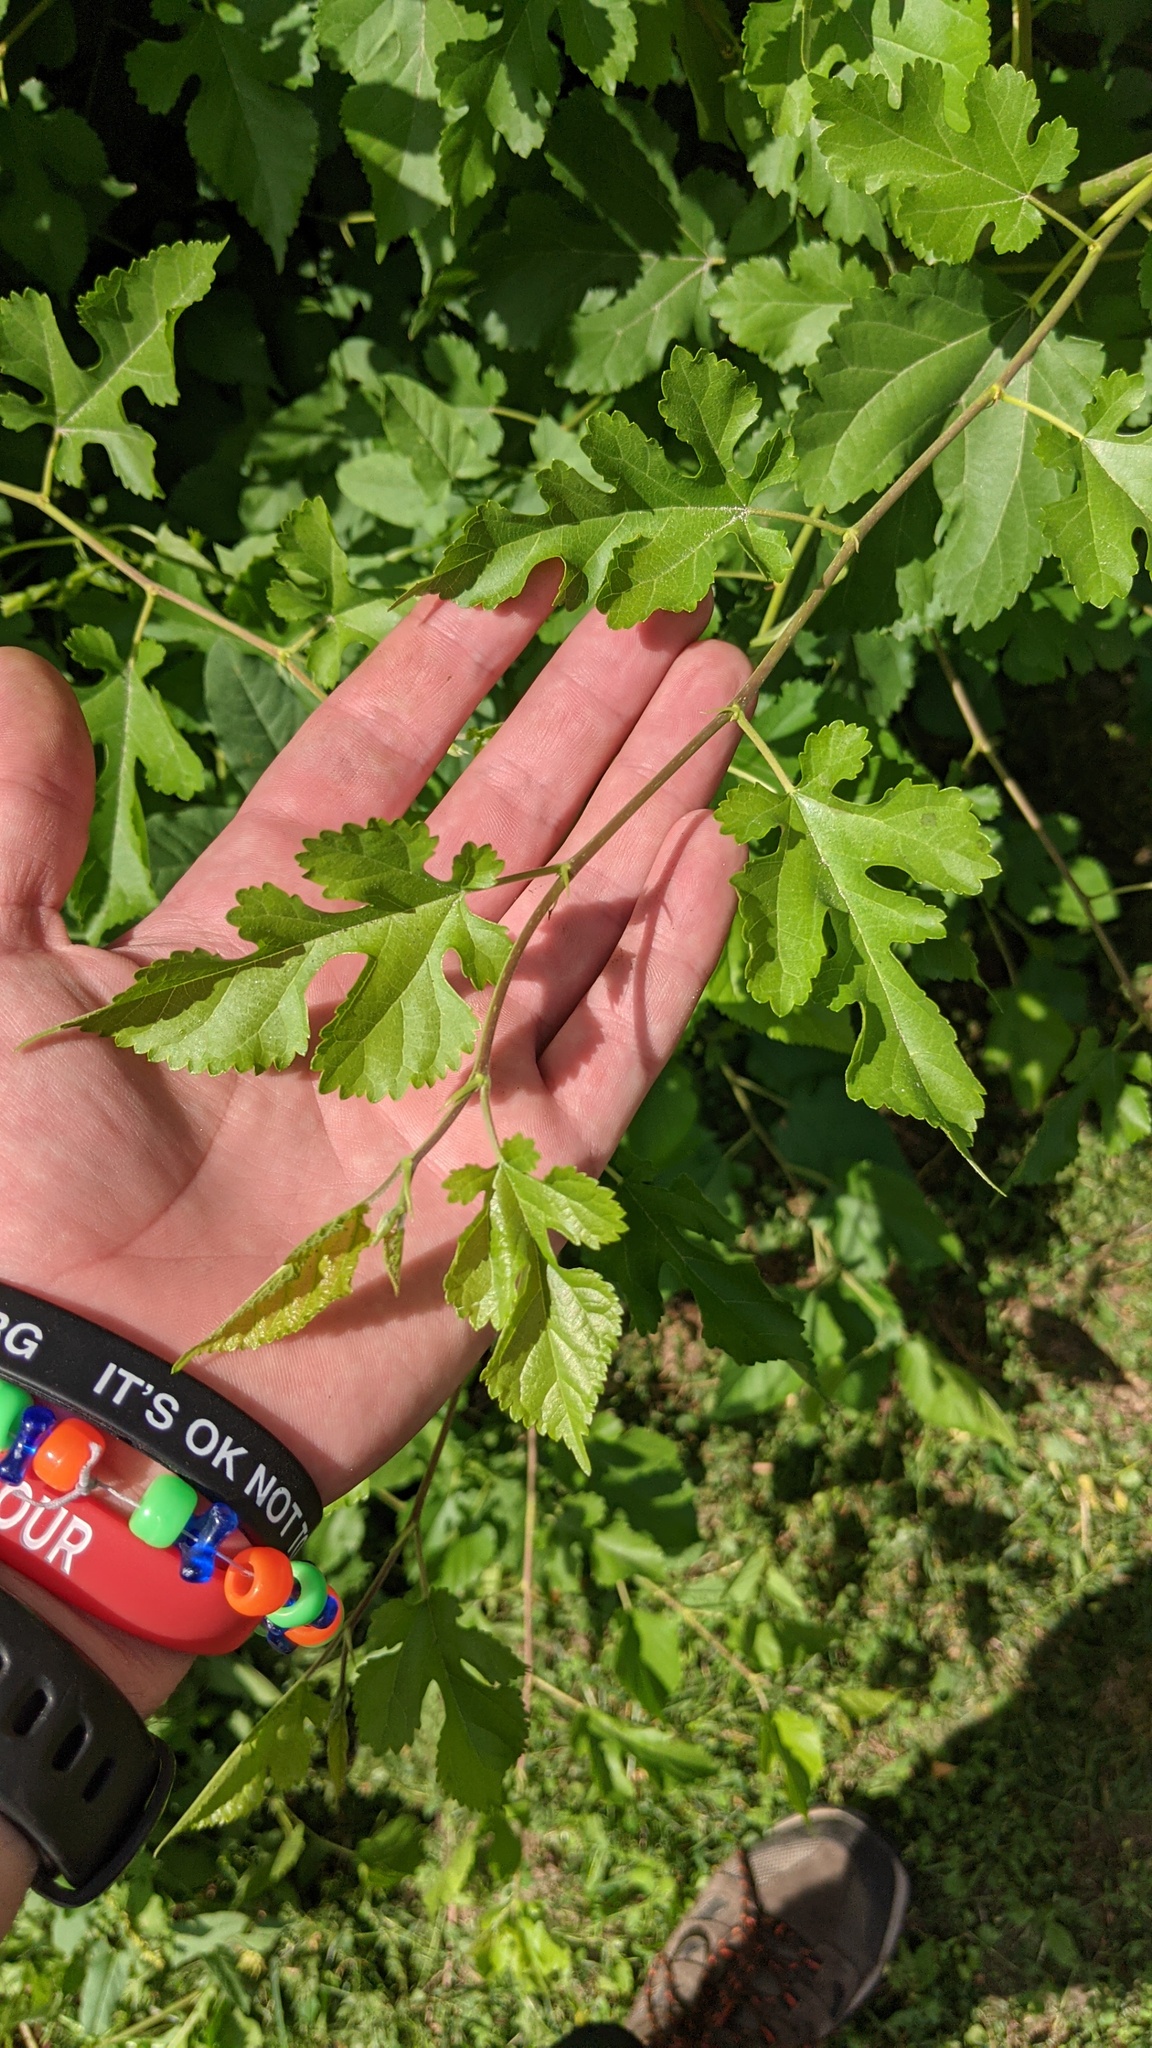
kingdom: Plantae
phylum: Tracheophyta
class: Magnoliopsida
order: Rosales
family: Moraceae
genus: Morus
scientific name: Morus alba
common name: White mulberry
